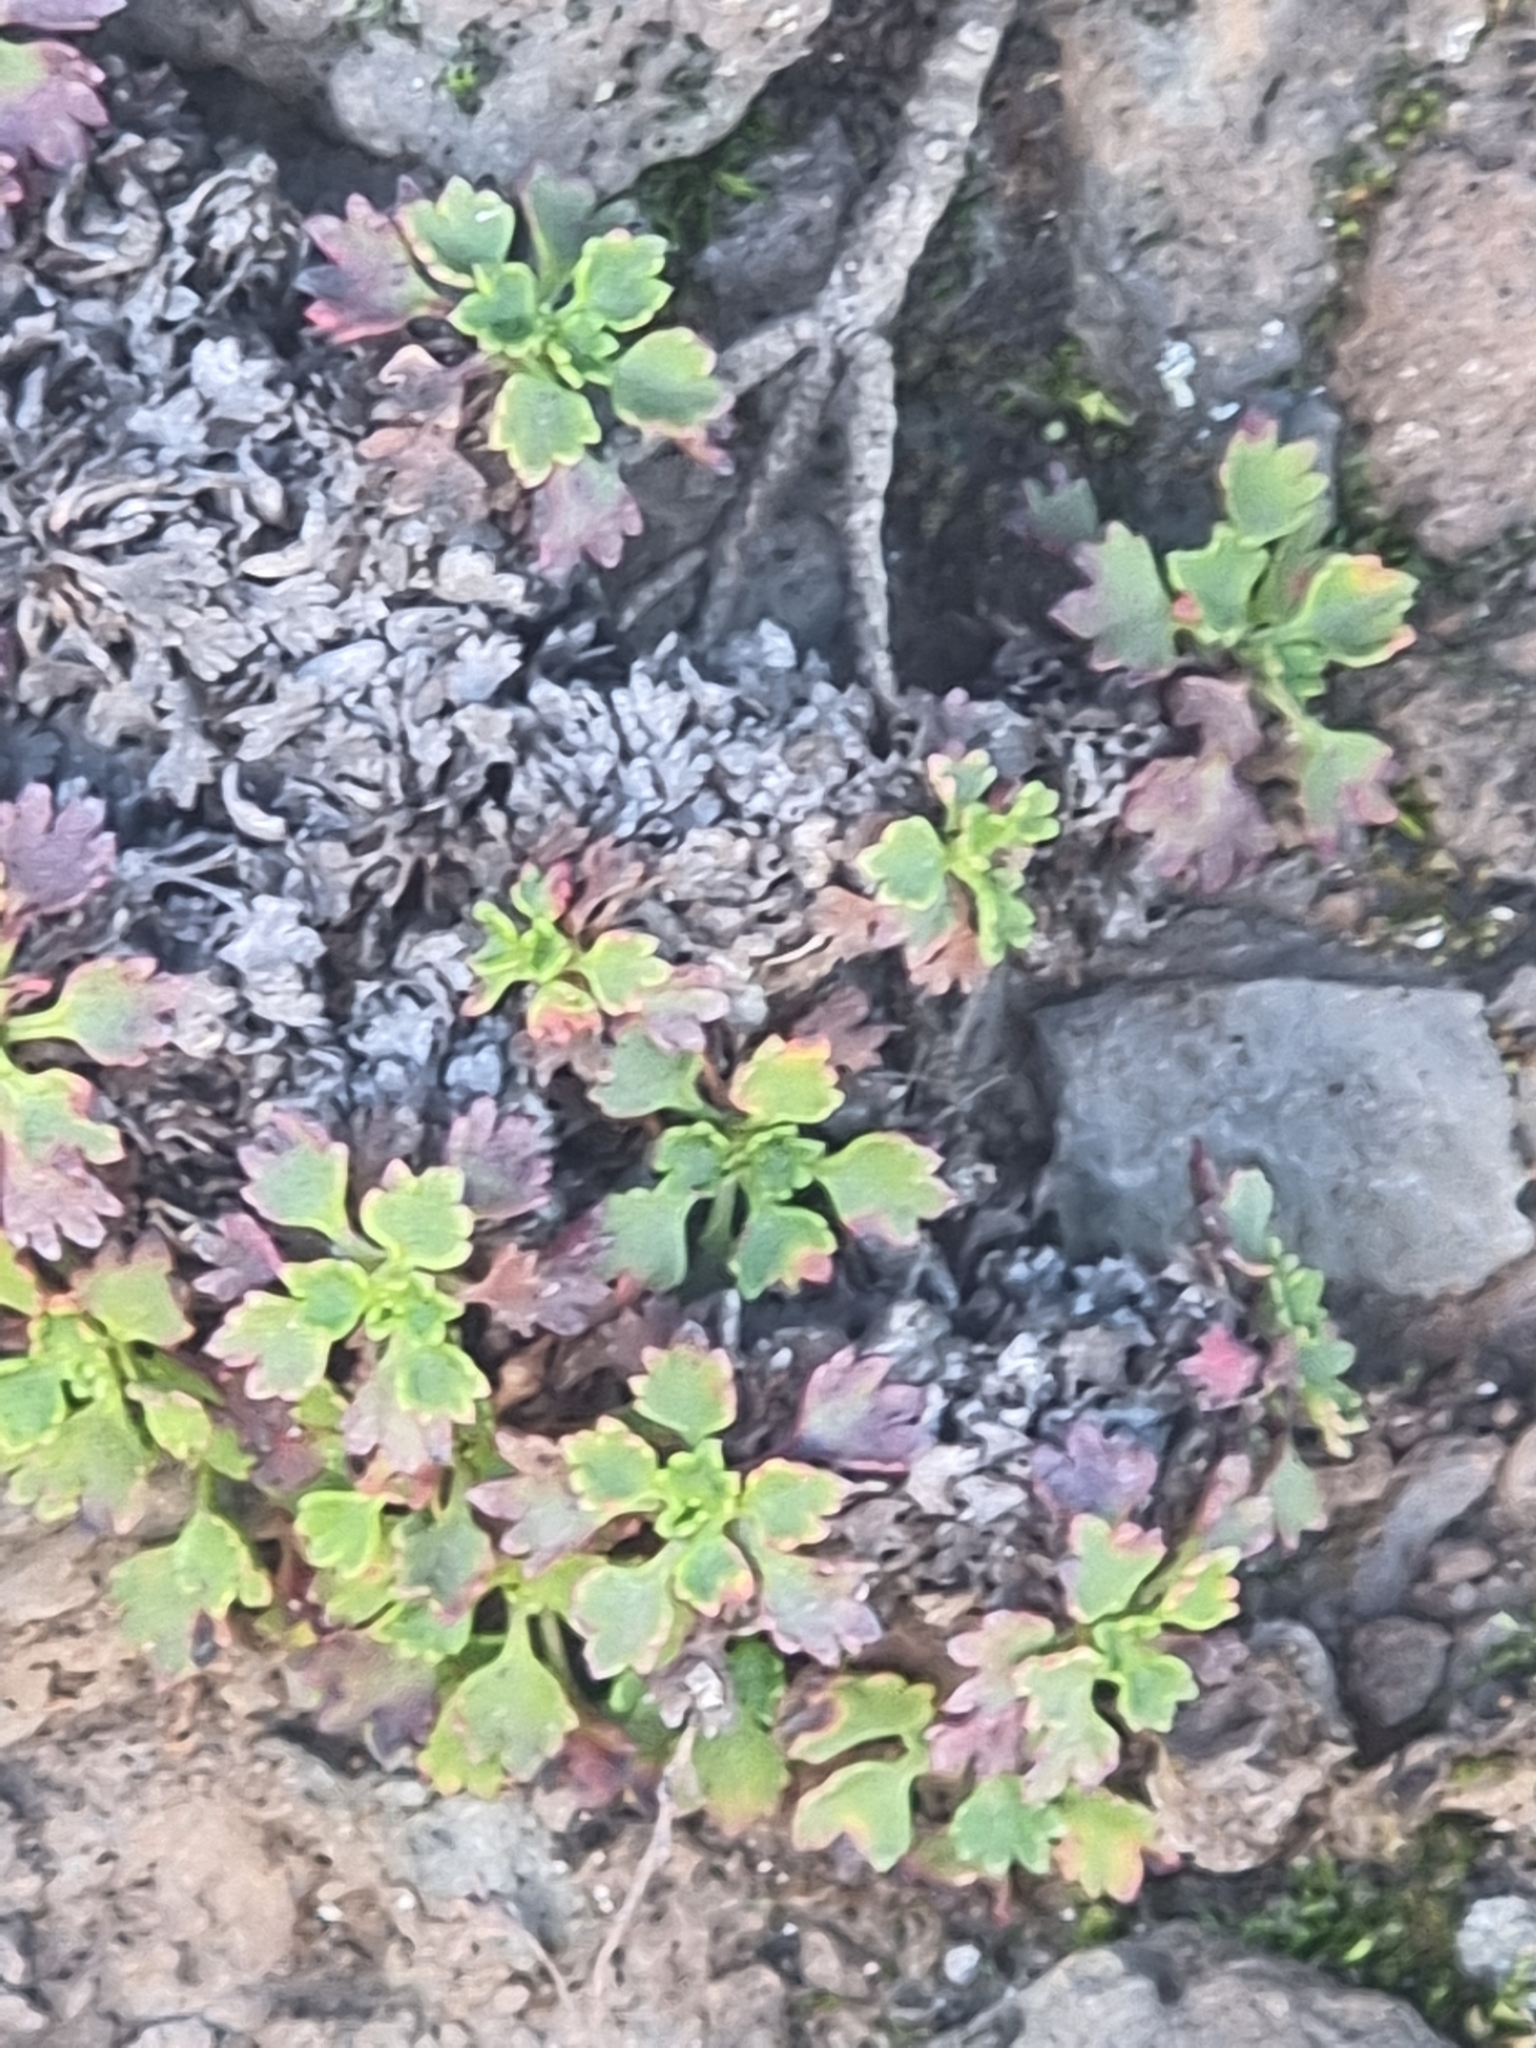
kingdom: Plantae
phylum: Tracheophyta
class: Magnoliopsida
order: Saxifragales
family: Saxifragaceae
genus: Saxifraga
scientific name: Saxifraga maderensis
